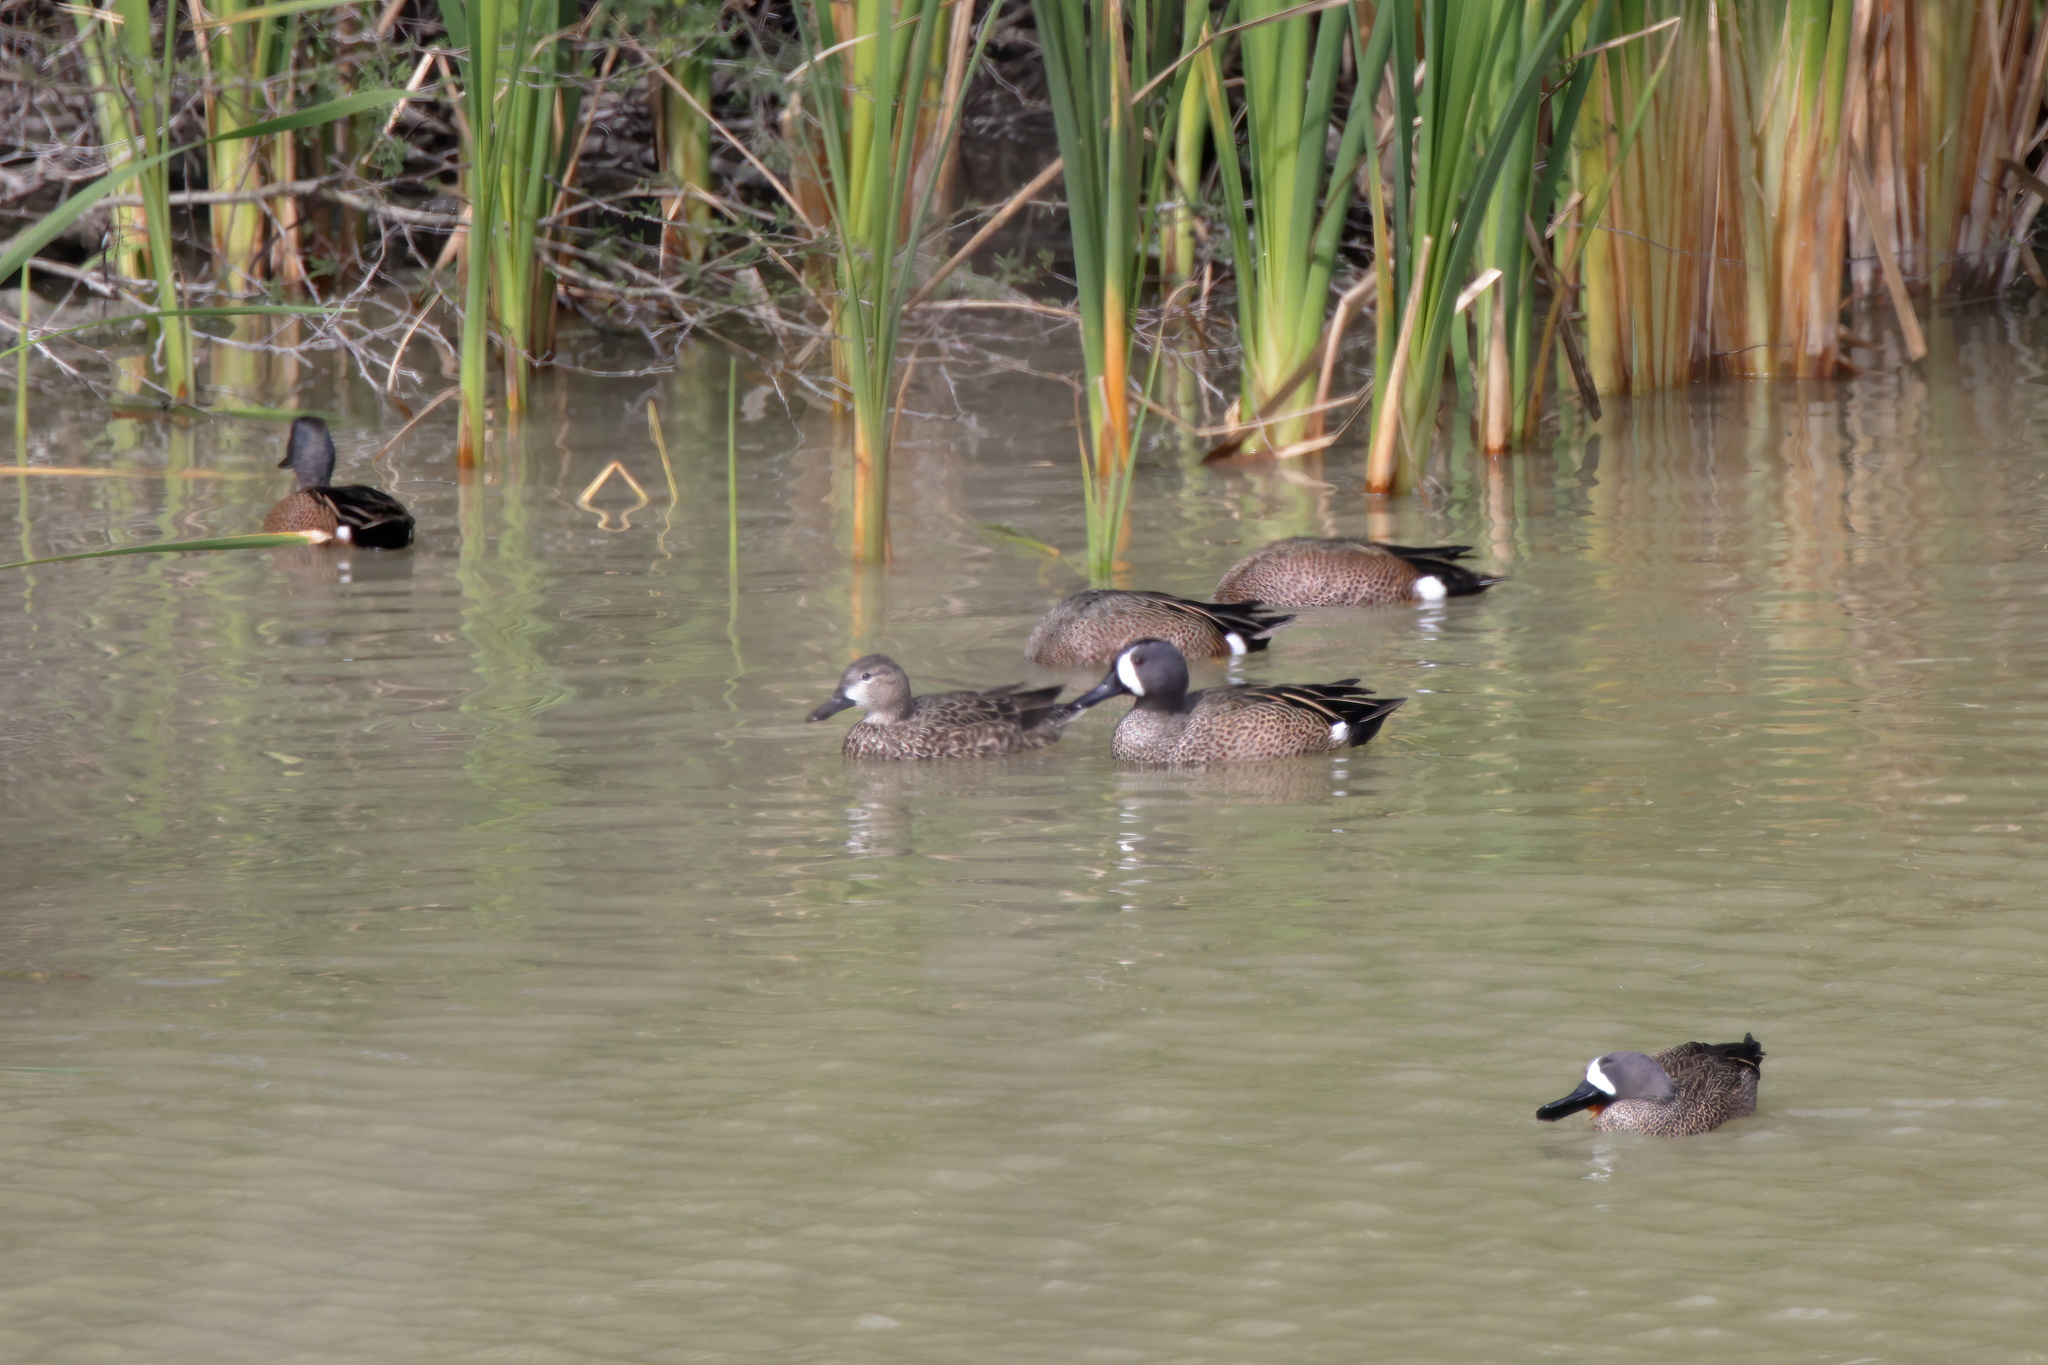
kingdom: Animalia
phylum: Chordata
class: Aves
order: Anseriformes
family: Anatidae
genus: Spatula
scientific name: Spatula discors
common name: Blue-winged teal
